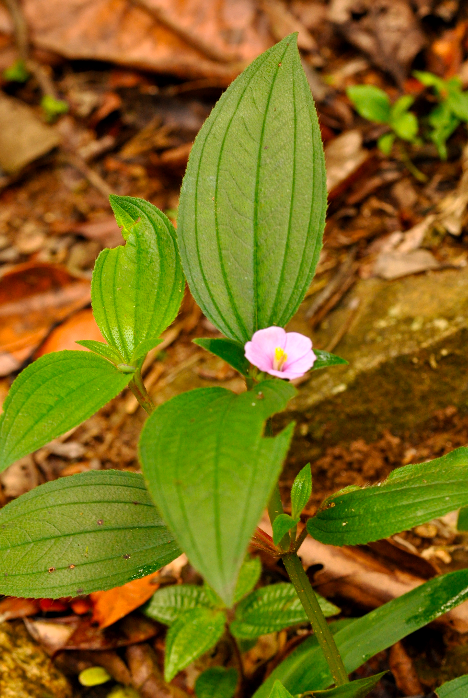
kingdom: Plantae
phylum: Tracheophyta
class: Magnoliopsida
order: Myrtales
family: Melastomataceae
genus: Tristemma
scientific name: Tristemma mauritianum
